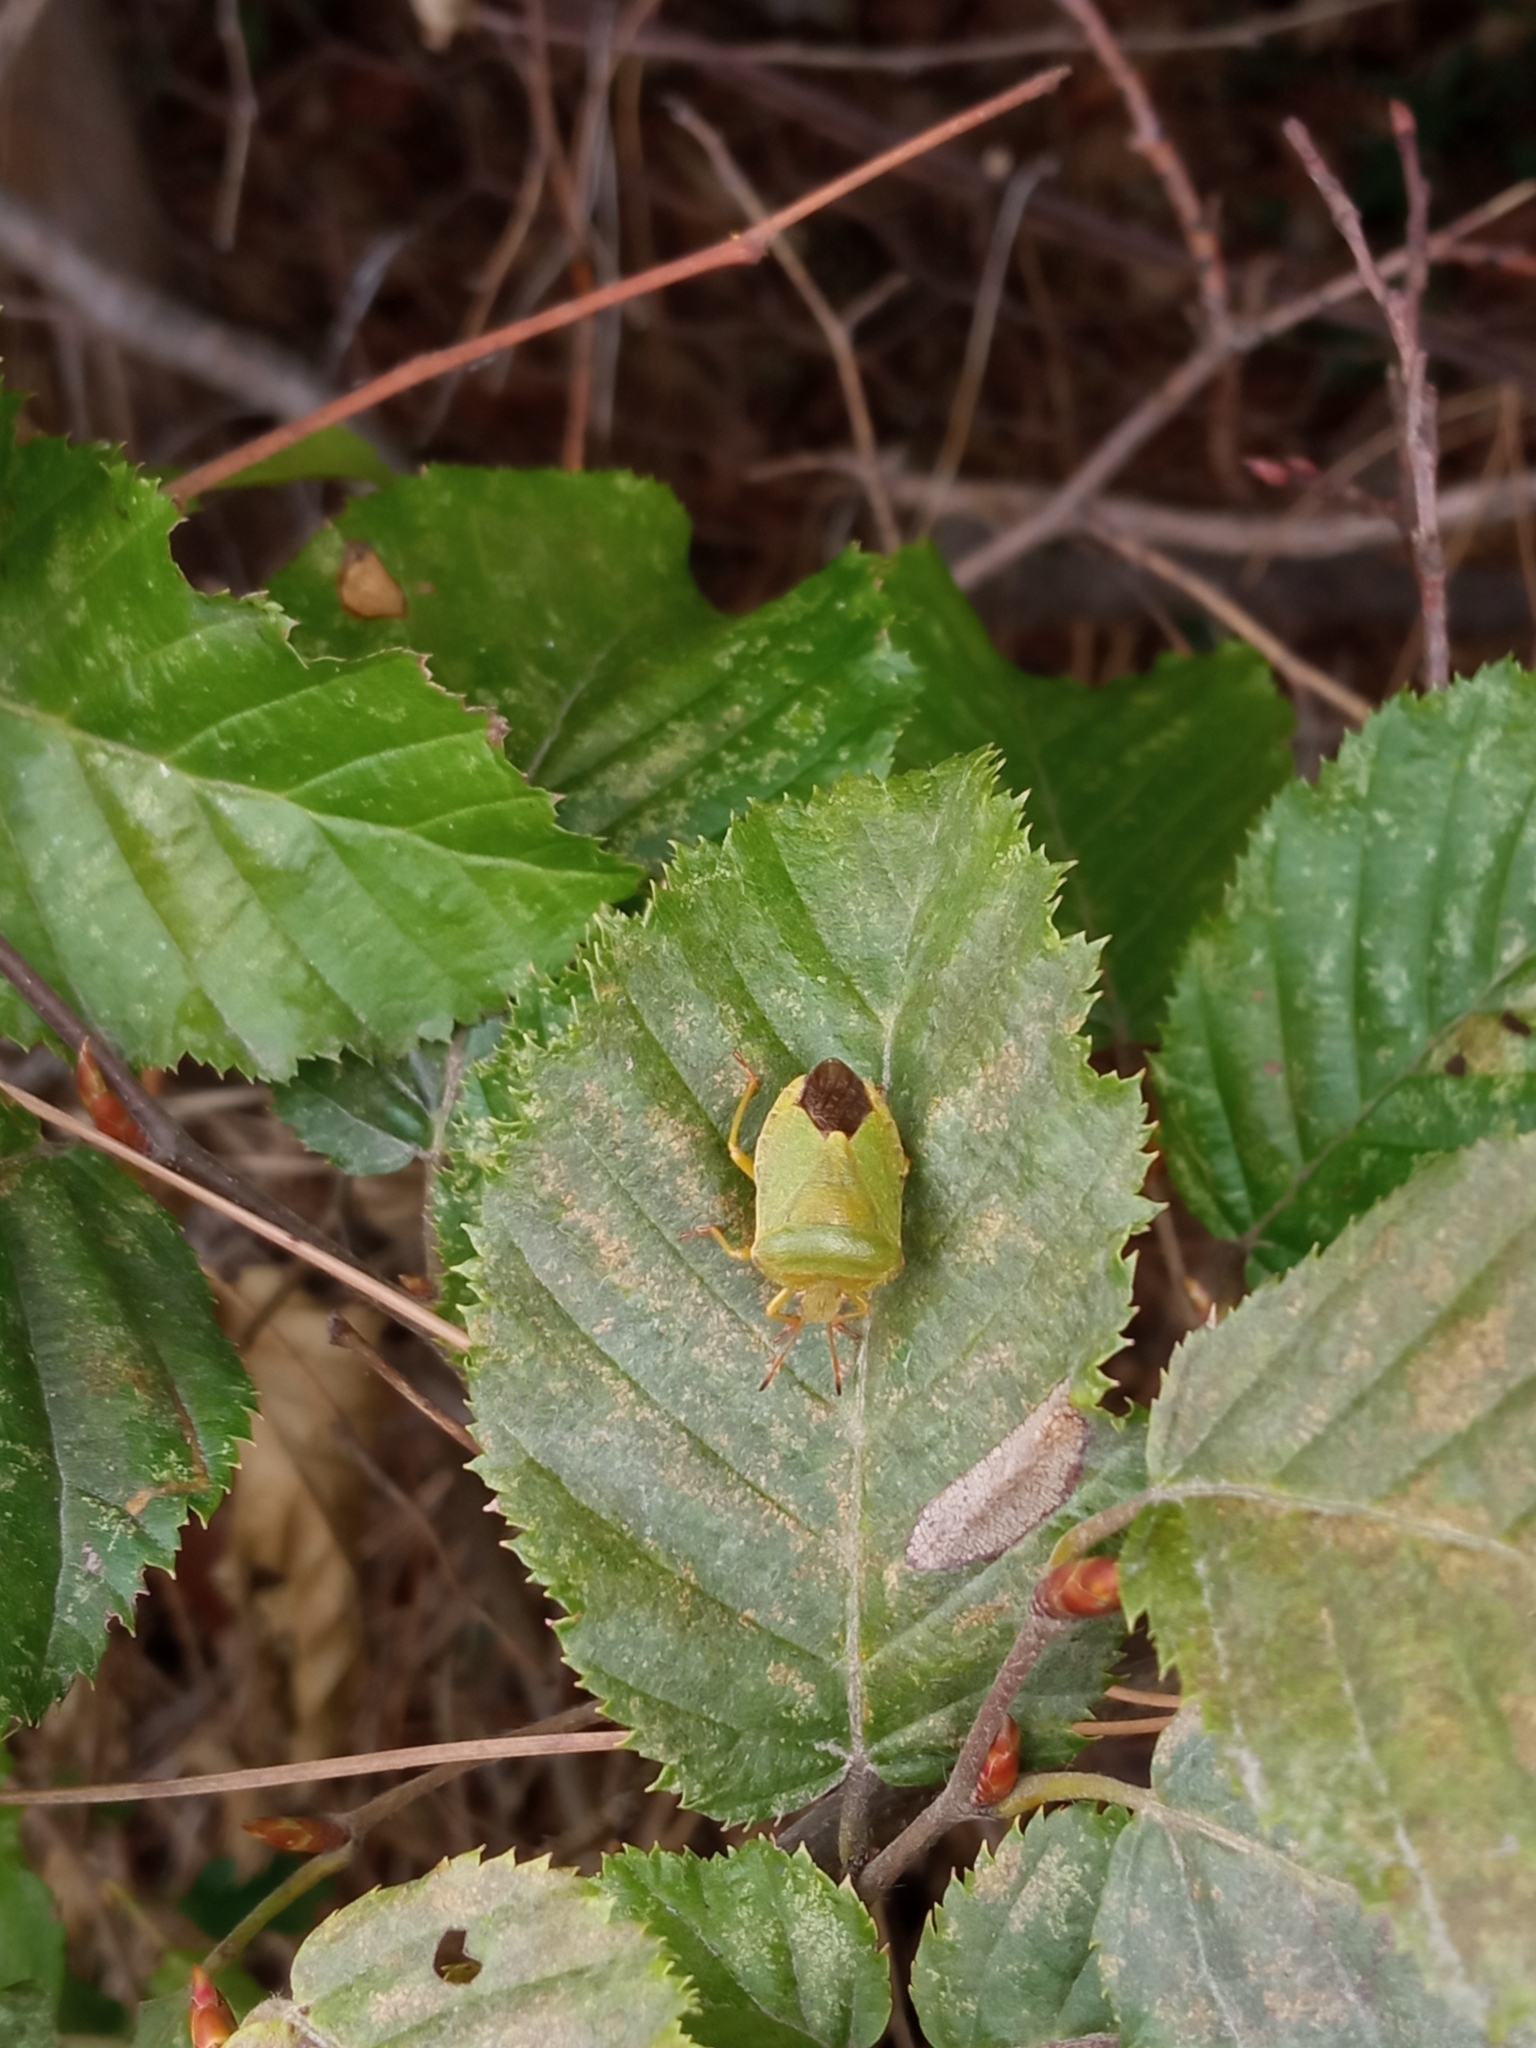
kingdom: Animalia
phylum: Arthropoda
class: Insecta
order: Hemiptera
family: Pentatomidae
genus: Palomena
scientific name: Palomena prasina
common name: Green shieldbug
